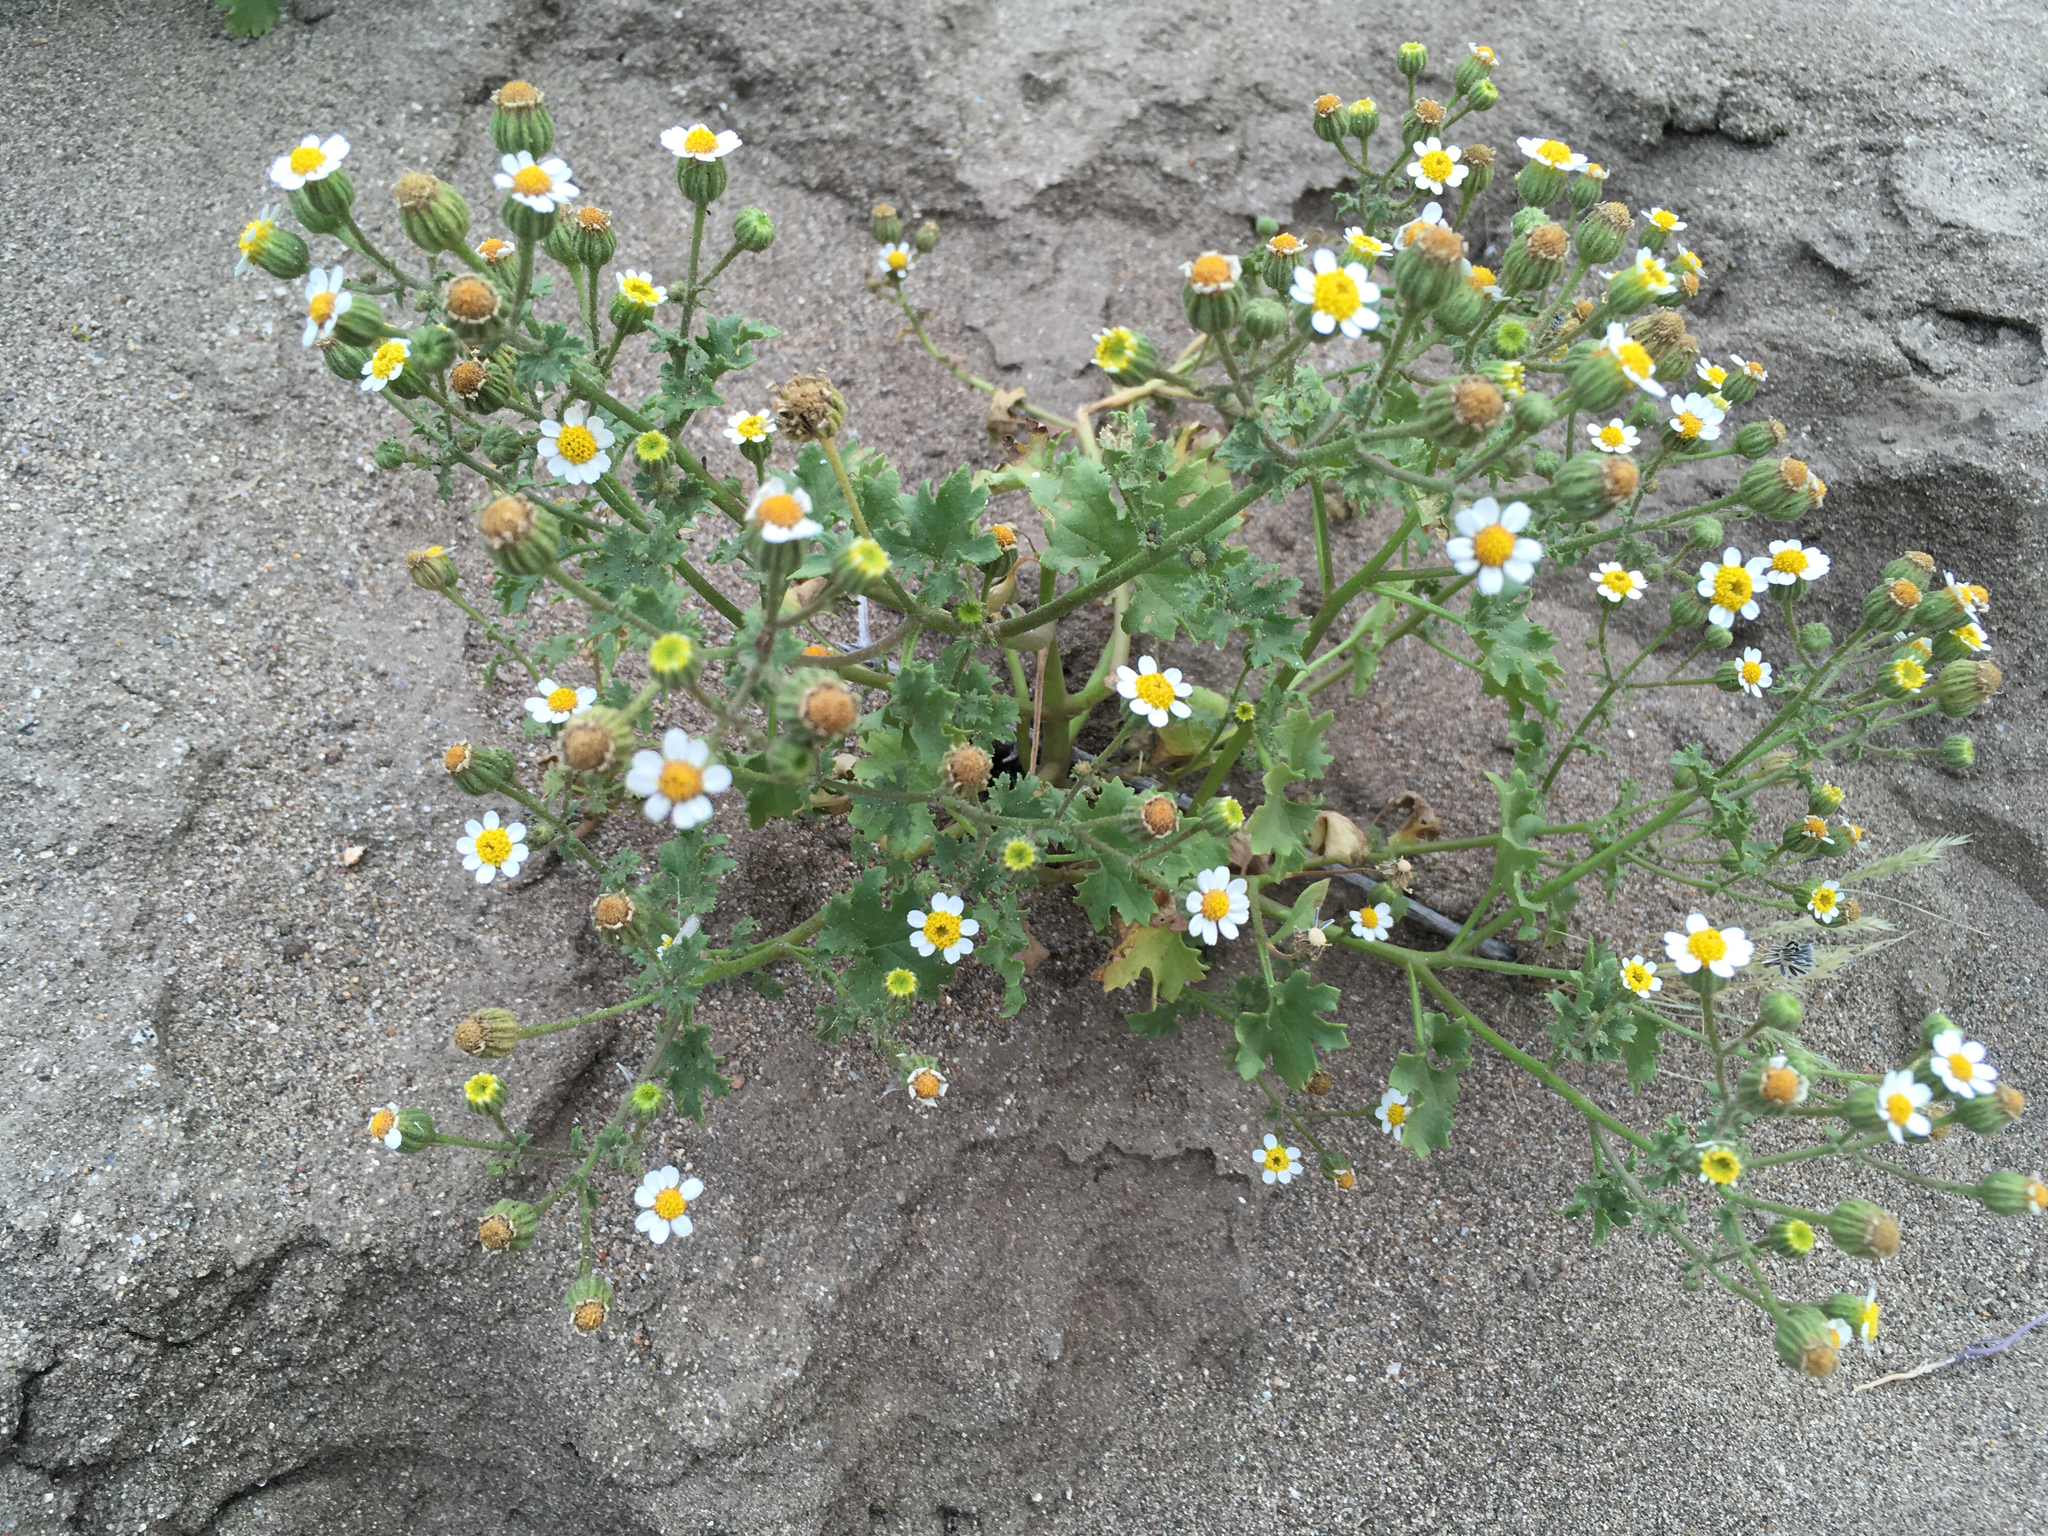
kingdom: Plantae
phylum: Tracheophyta
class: Magnoliopsida
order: Asterales
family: Asteraceae
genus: Laphamia
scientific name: Laphamia emoryi
